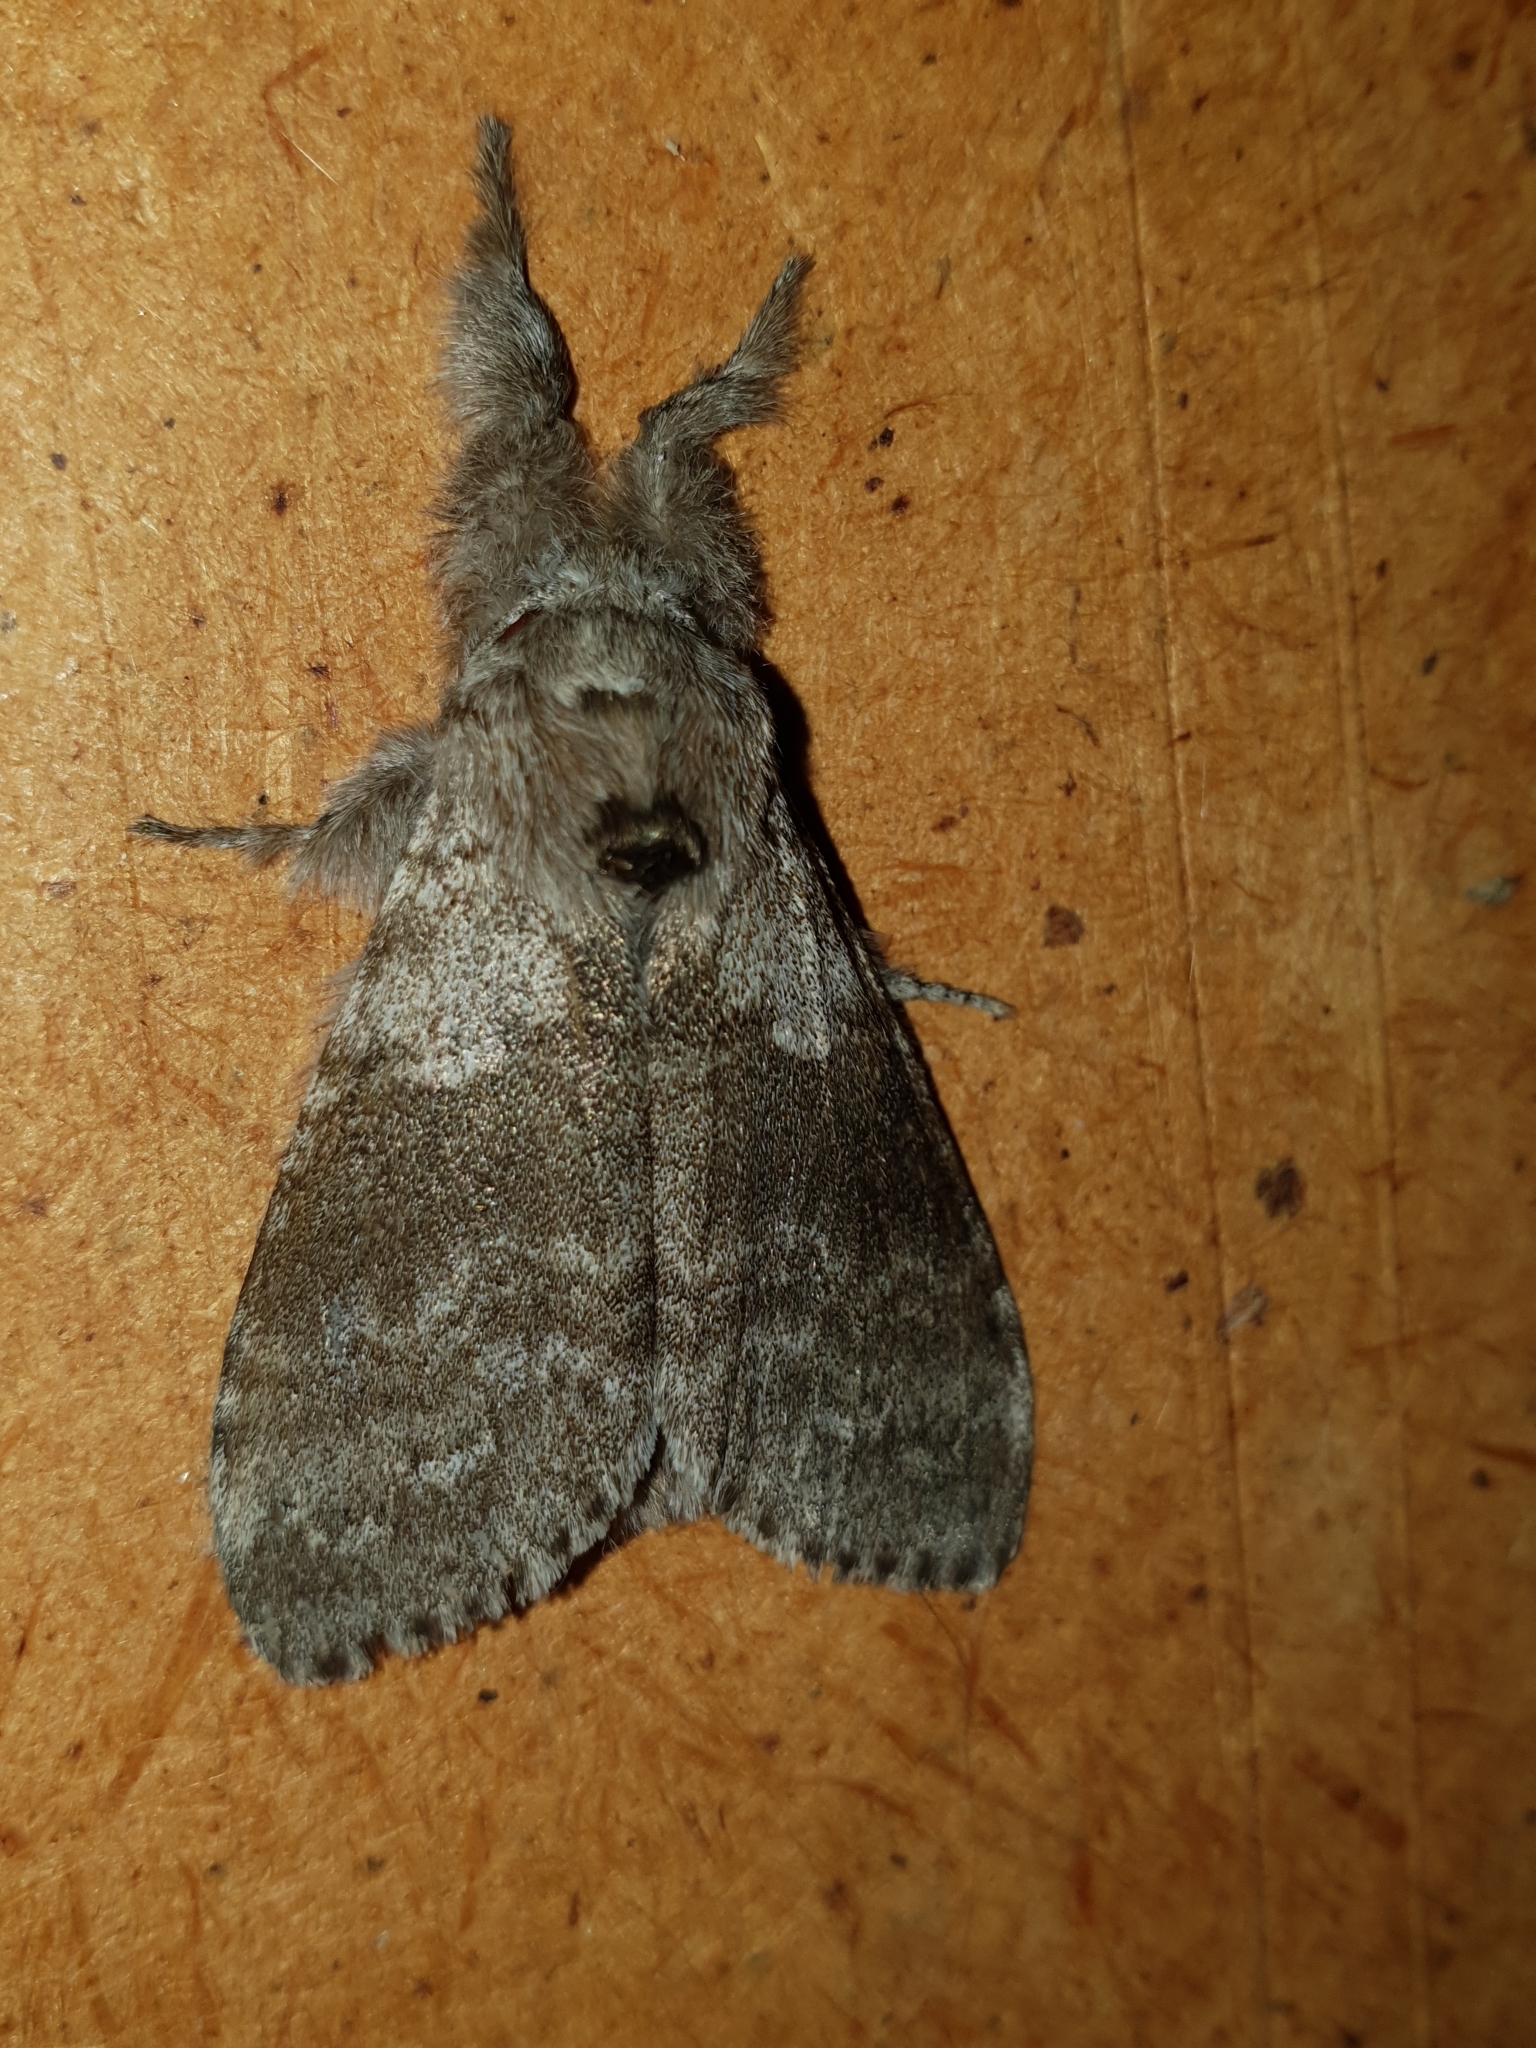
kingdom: Animalia
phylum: Arthropoda
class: Insecta
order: Lepidoptera
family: Erebidae
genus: Calliteara
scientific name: Calliteara pudibunda
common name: Pale tussock
